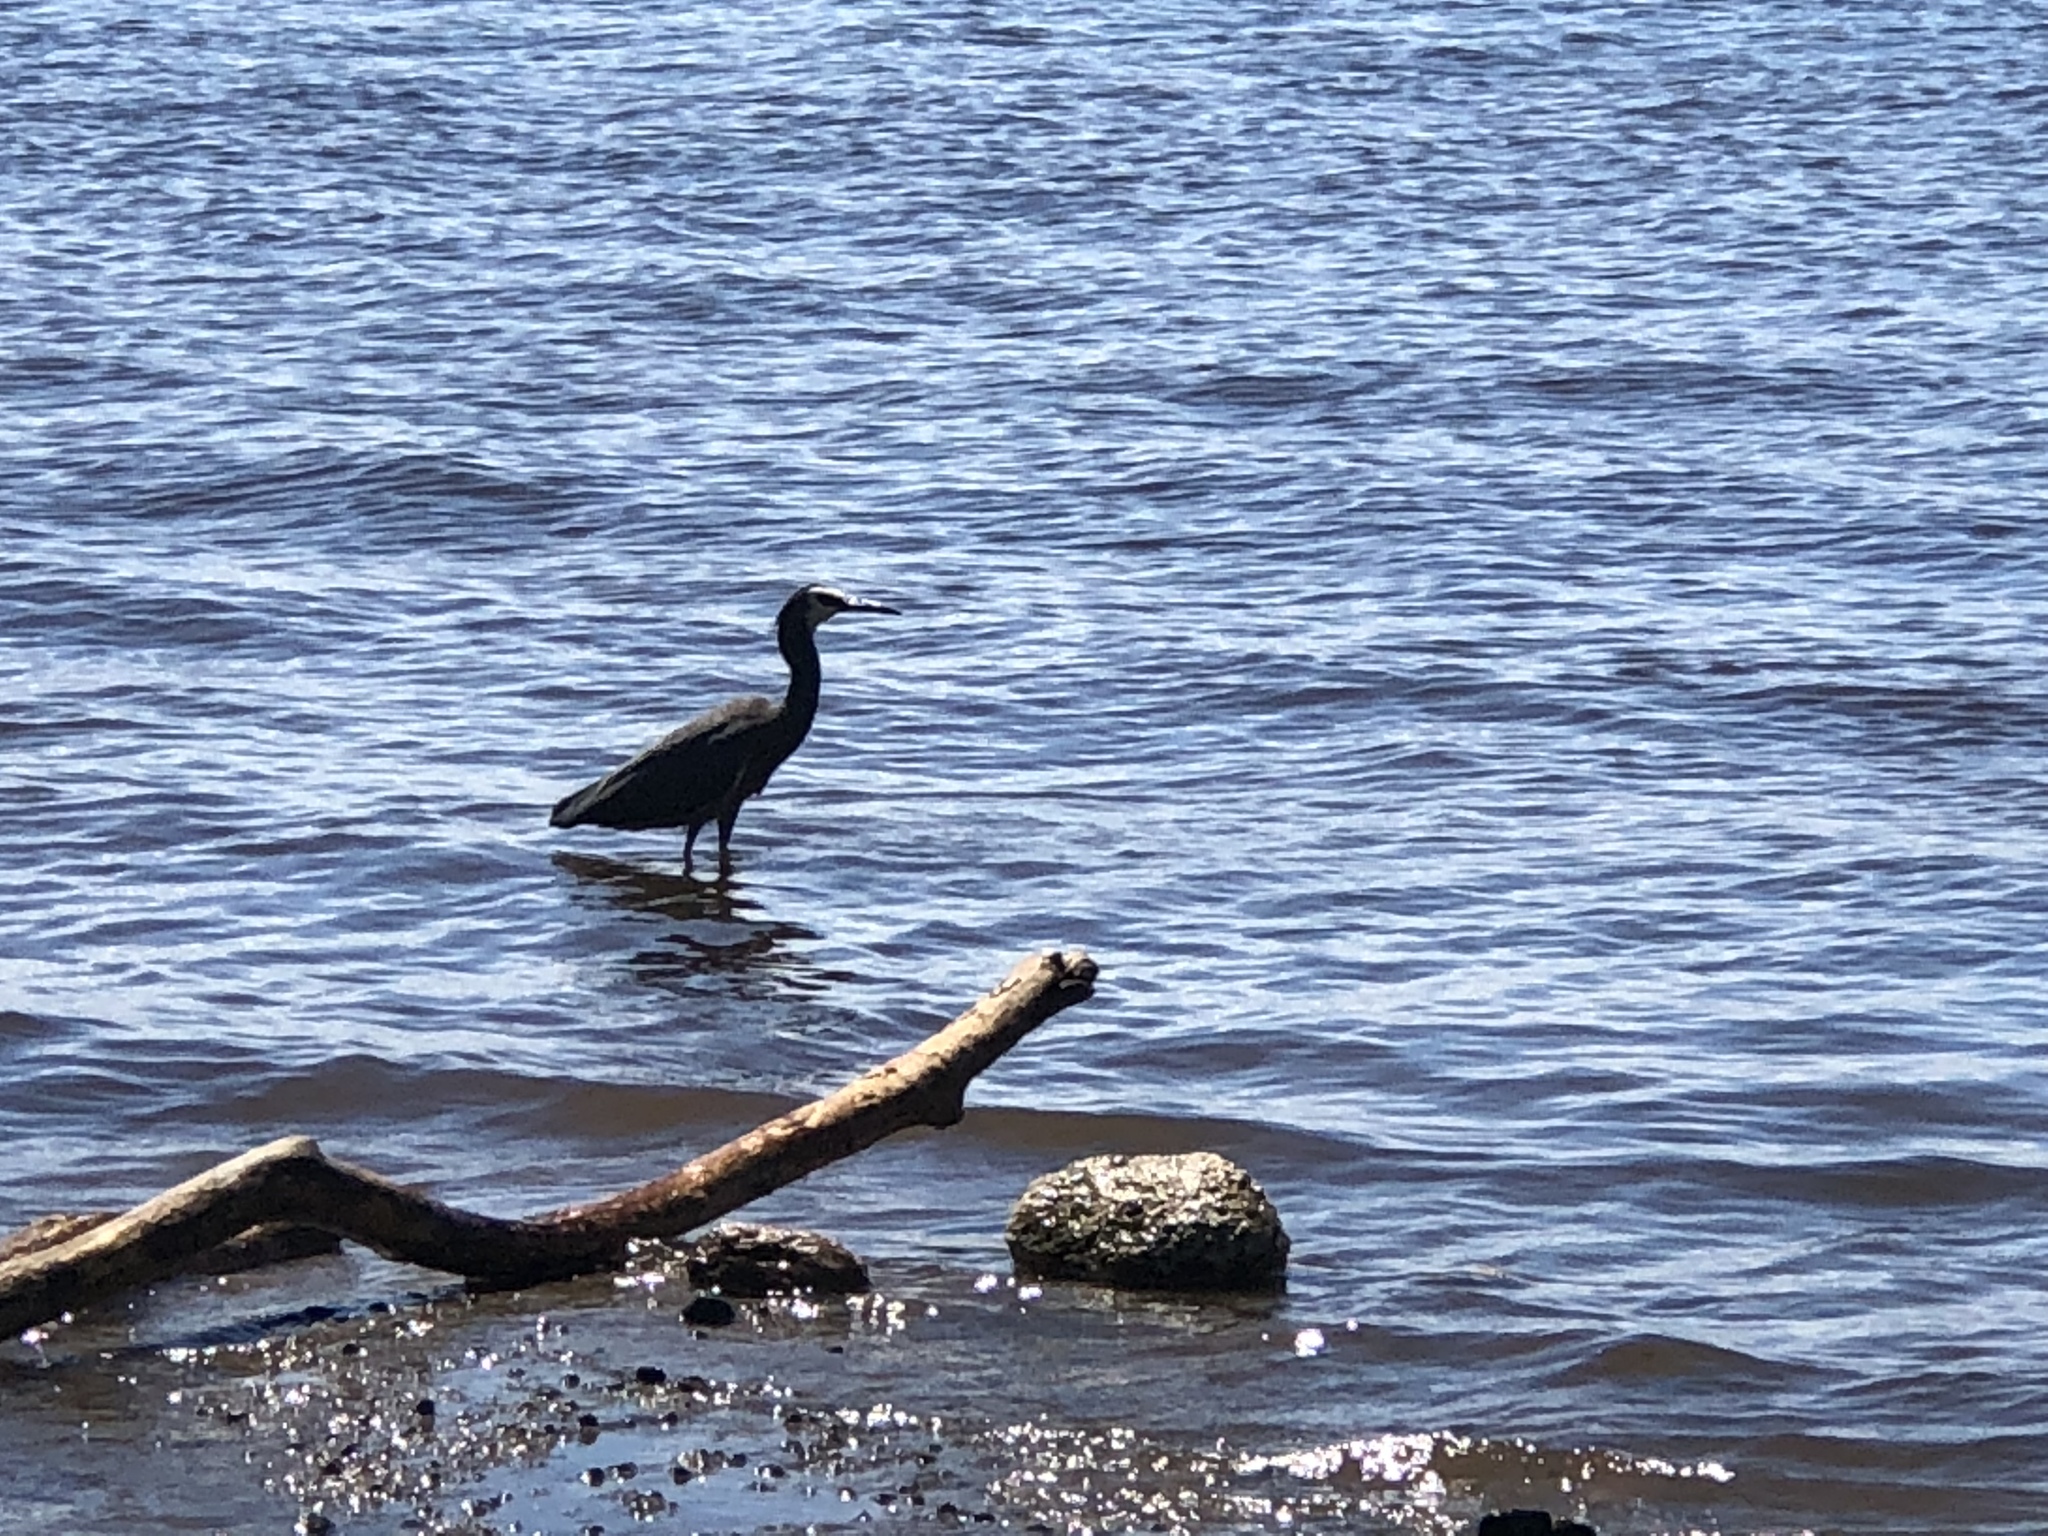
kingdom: Animalia
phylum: Chordata
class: Aves
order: Pelecaniformes
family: Ardeidae
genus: Egretta
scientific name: Egretta novaehollandiae
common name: White-faced heron
